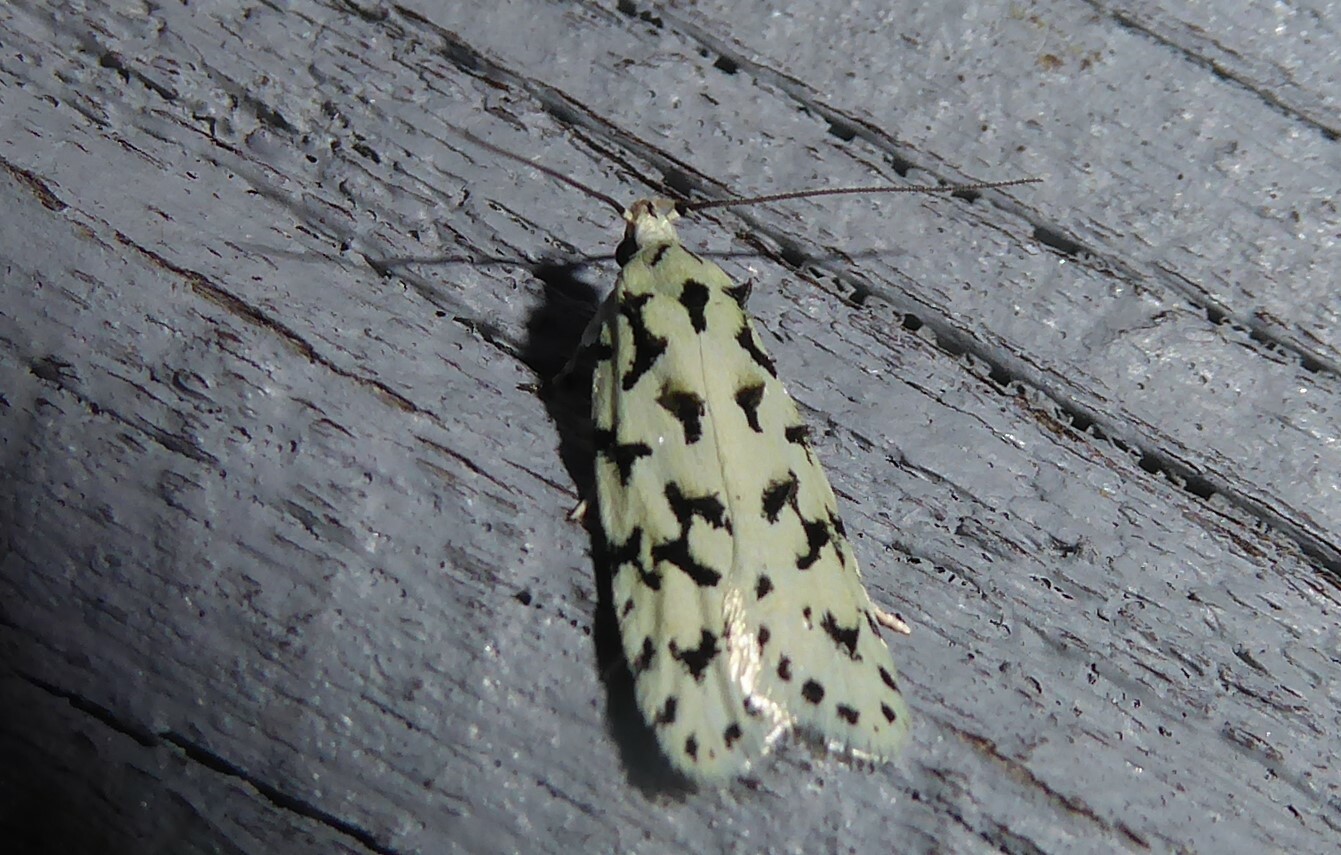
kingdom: Animalia
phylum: Arthropoda
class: Insecta
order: Lepidoptera
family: Oecophoridae
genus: Izatha
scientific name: Izatha huttoni
